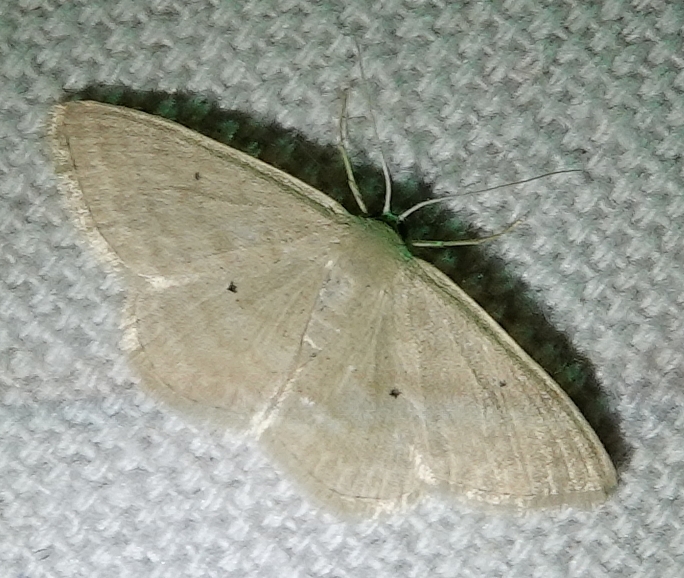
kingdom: Animalia
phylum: Arthropoda
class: Insecta
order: Lepidoptera
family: Geometridae
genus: Scopula
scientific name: Scopula inductata
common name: Soft-lined wave
